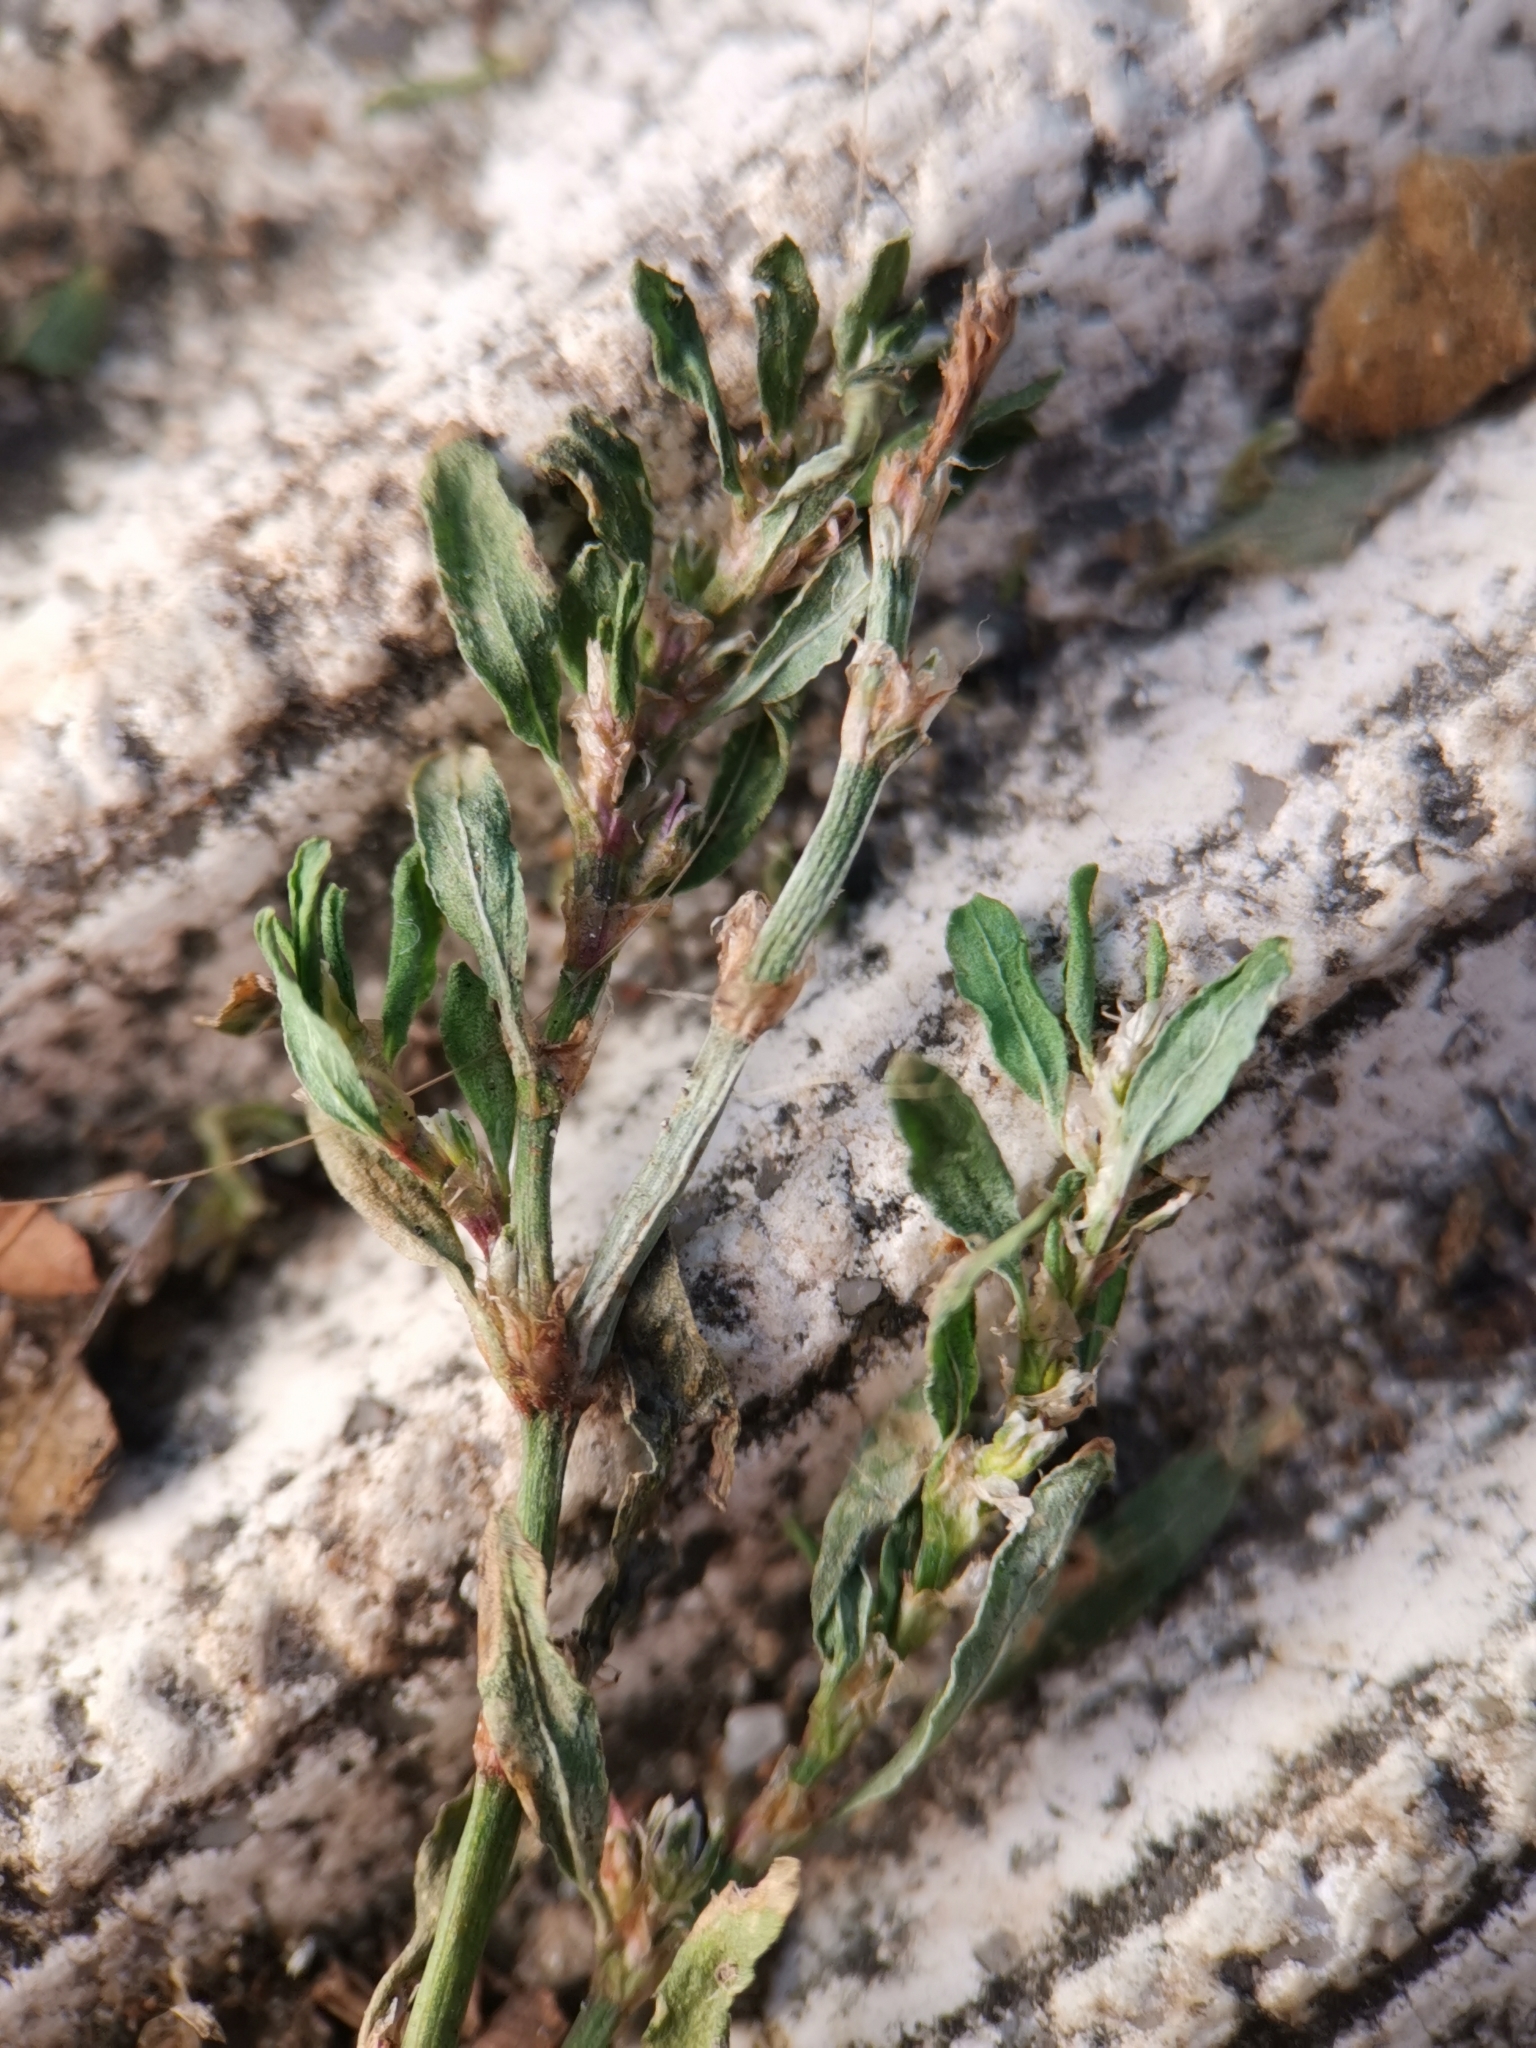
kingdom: Plantae
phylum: Tracheophyta
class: Magnoliopsida
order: Caryophyllales
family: Polygonaceae
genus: Polygonum
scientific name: Polygonum aviculare
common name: Prostrate knotweed
